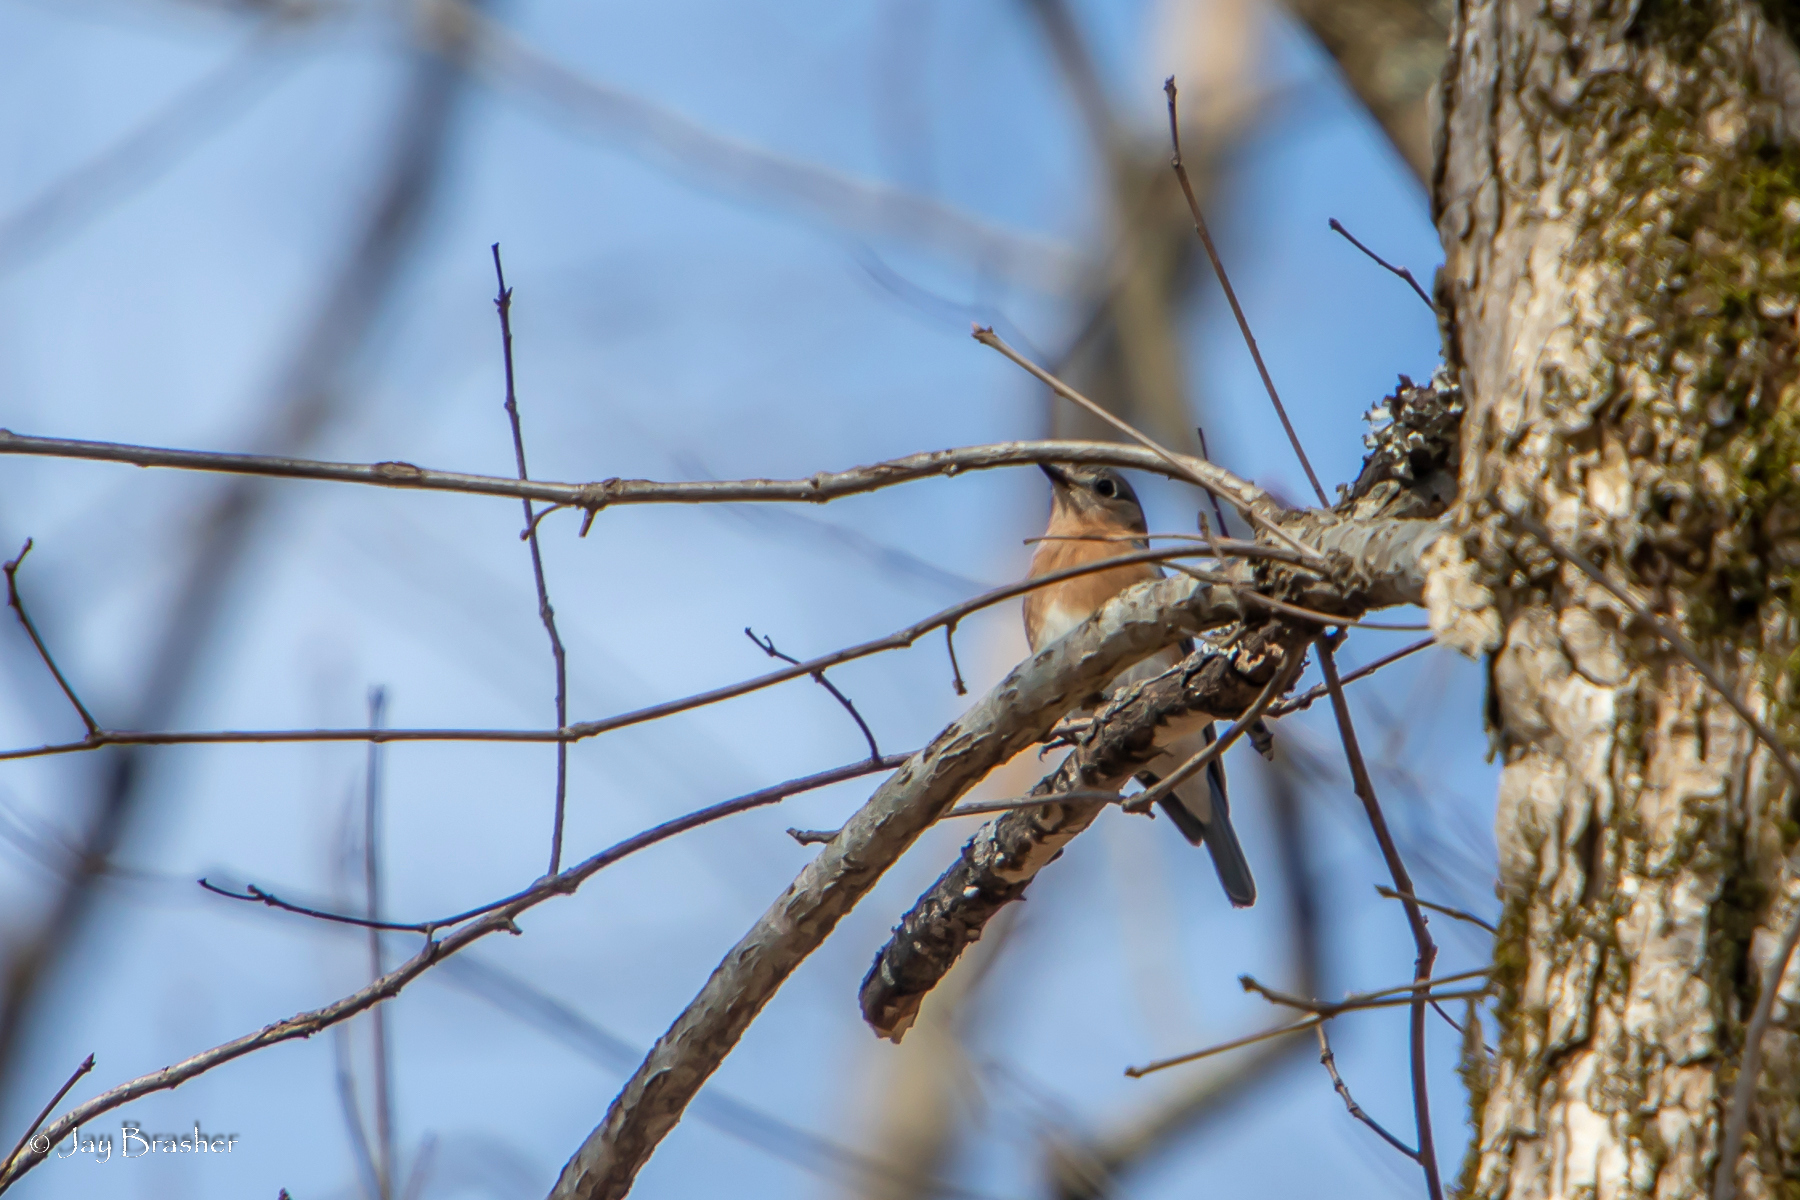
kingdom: Animalia
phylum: Chordata
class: Aves
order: Passeriformes
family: Turdidae
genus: Sialia
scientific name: Sialia sialis
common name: Eastern bluebird
